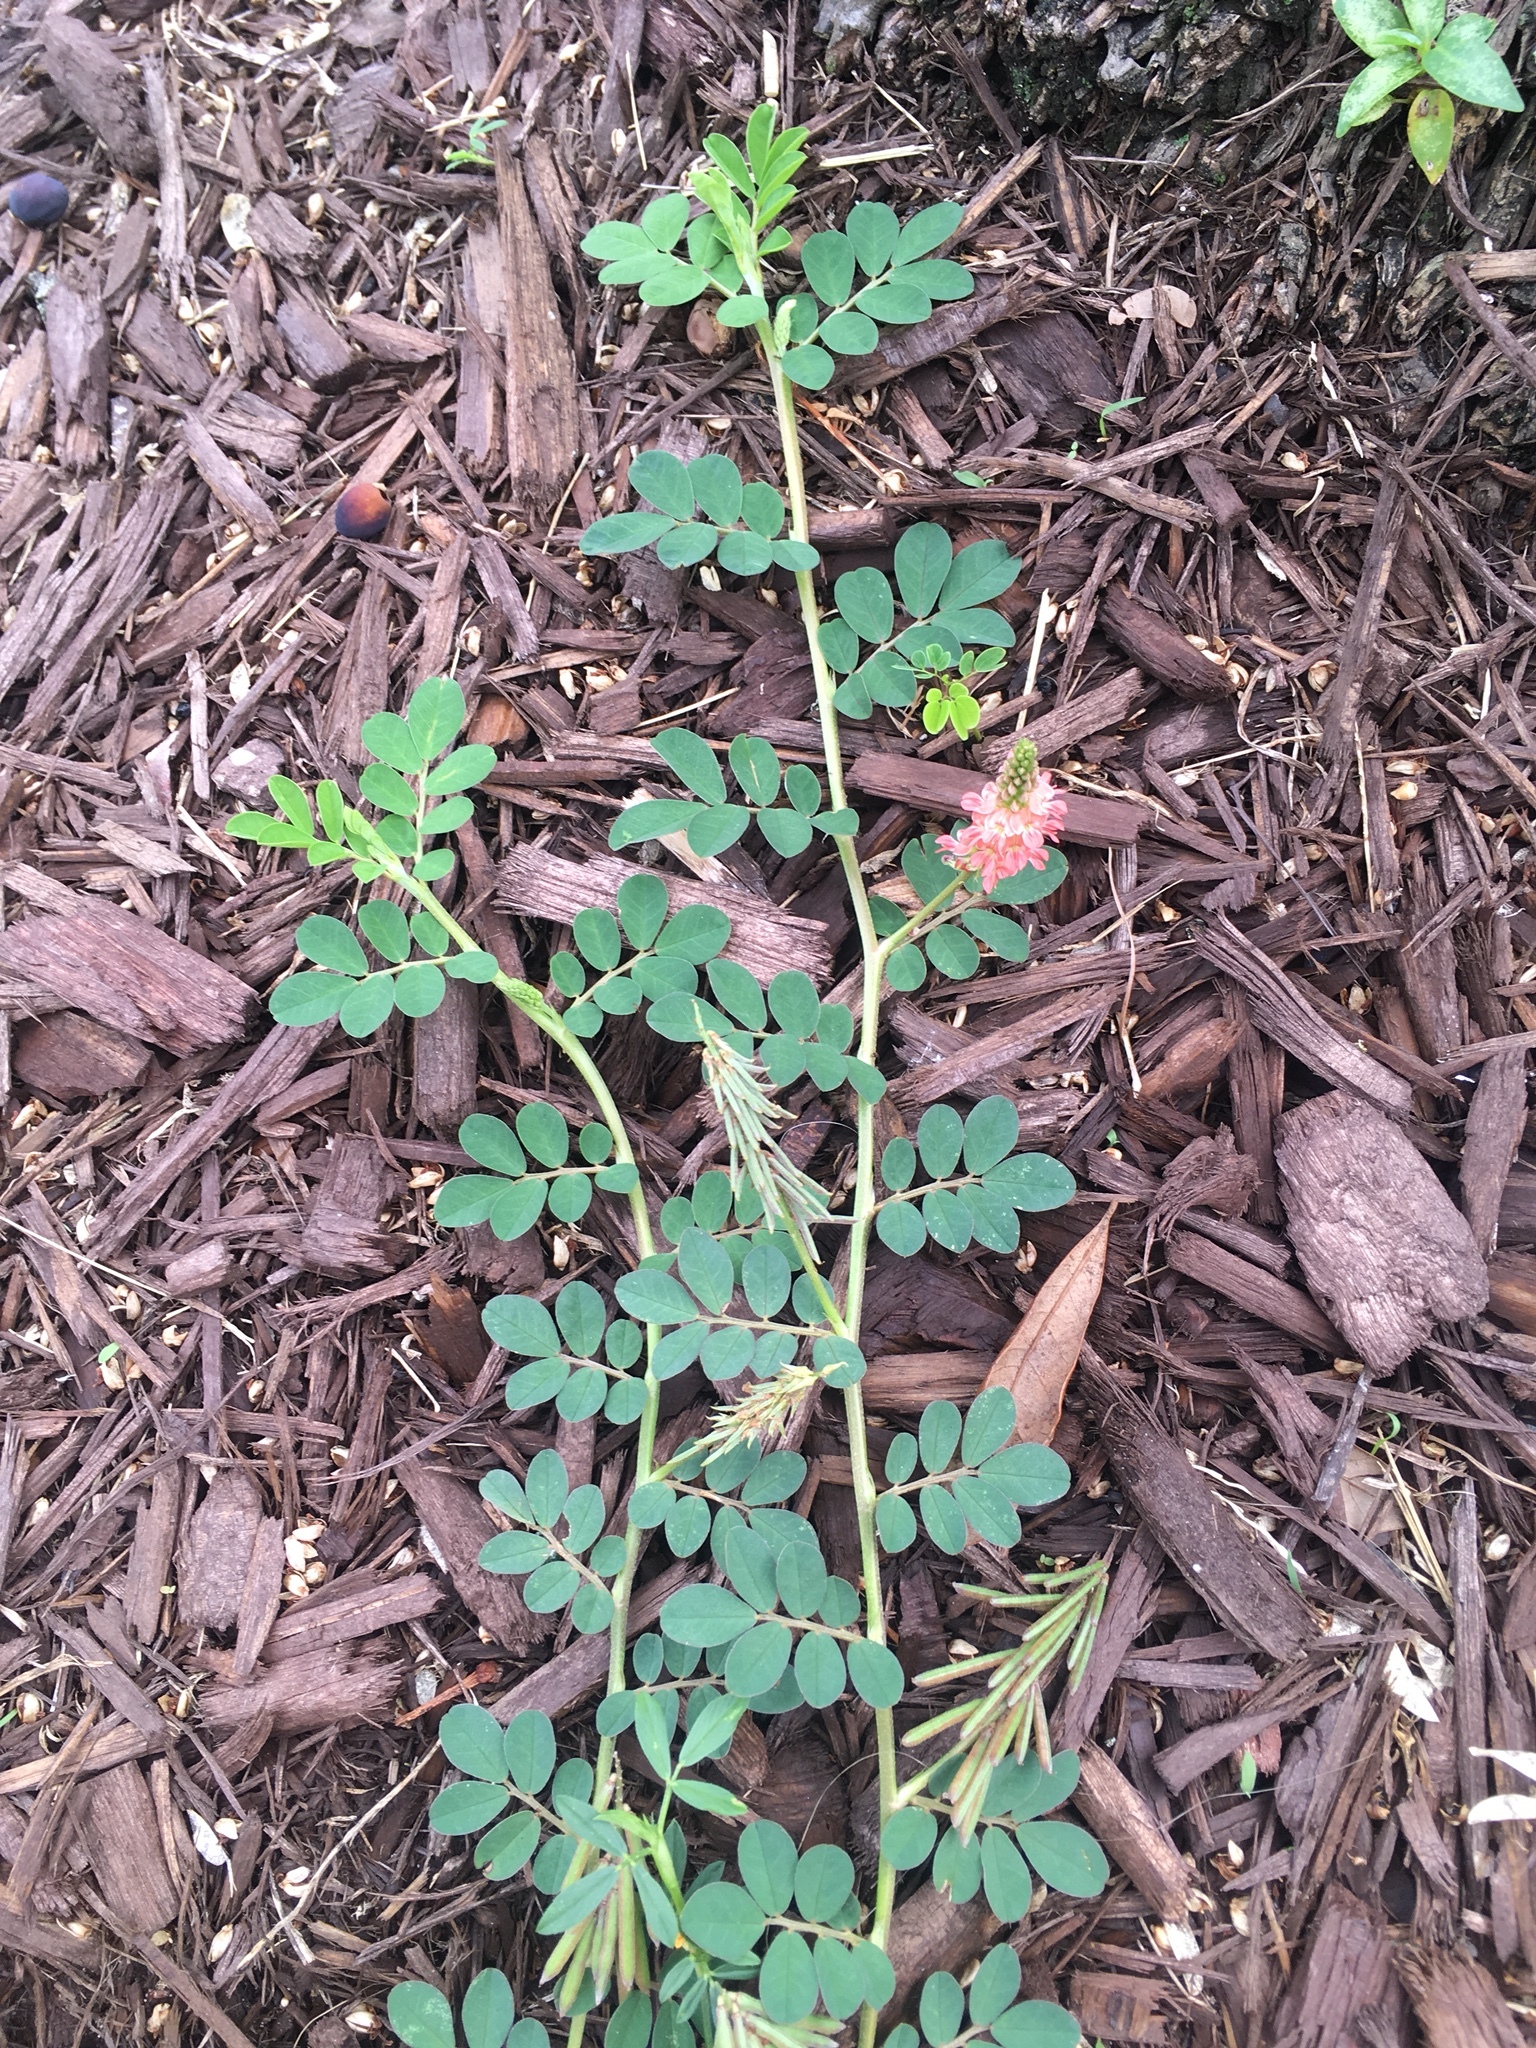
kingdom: Plantae
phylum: Tracheophyta
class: Magnoliopsida
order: Fabales
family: Fabaceae
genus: Indigofera
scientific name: Indigofera spicata
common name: Creeping indigo
